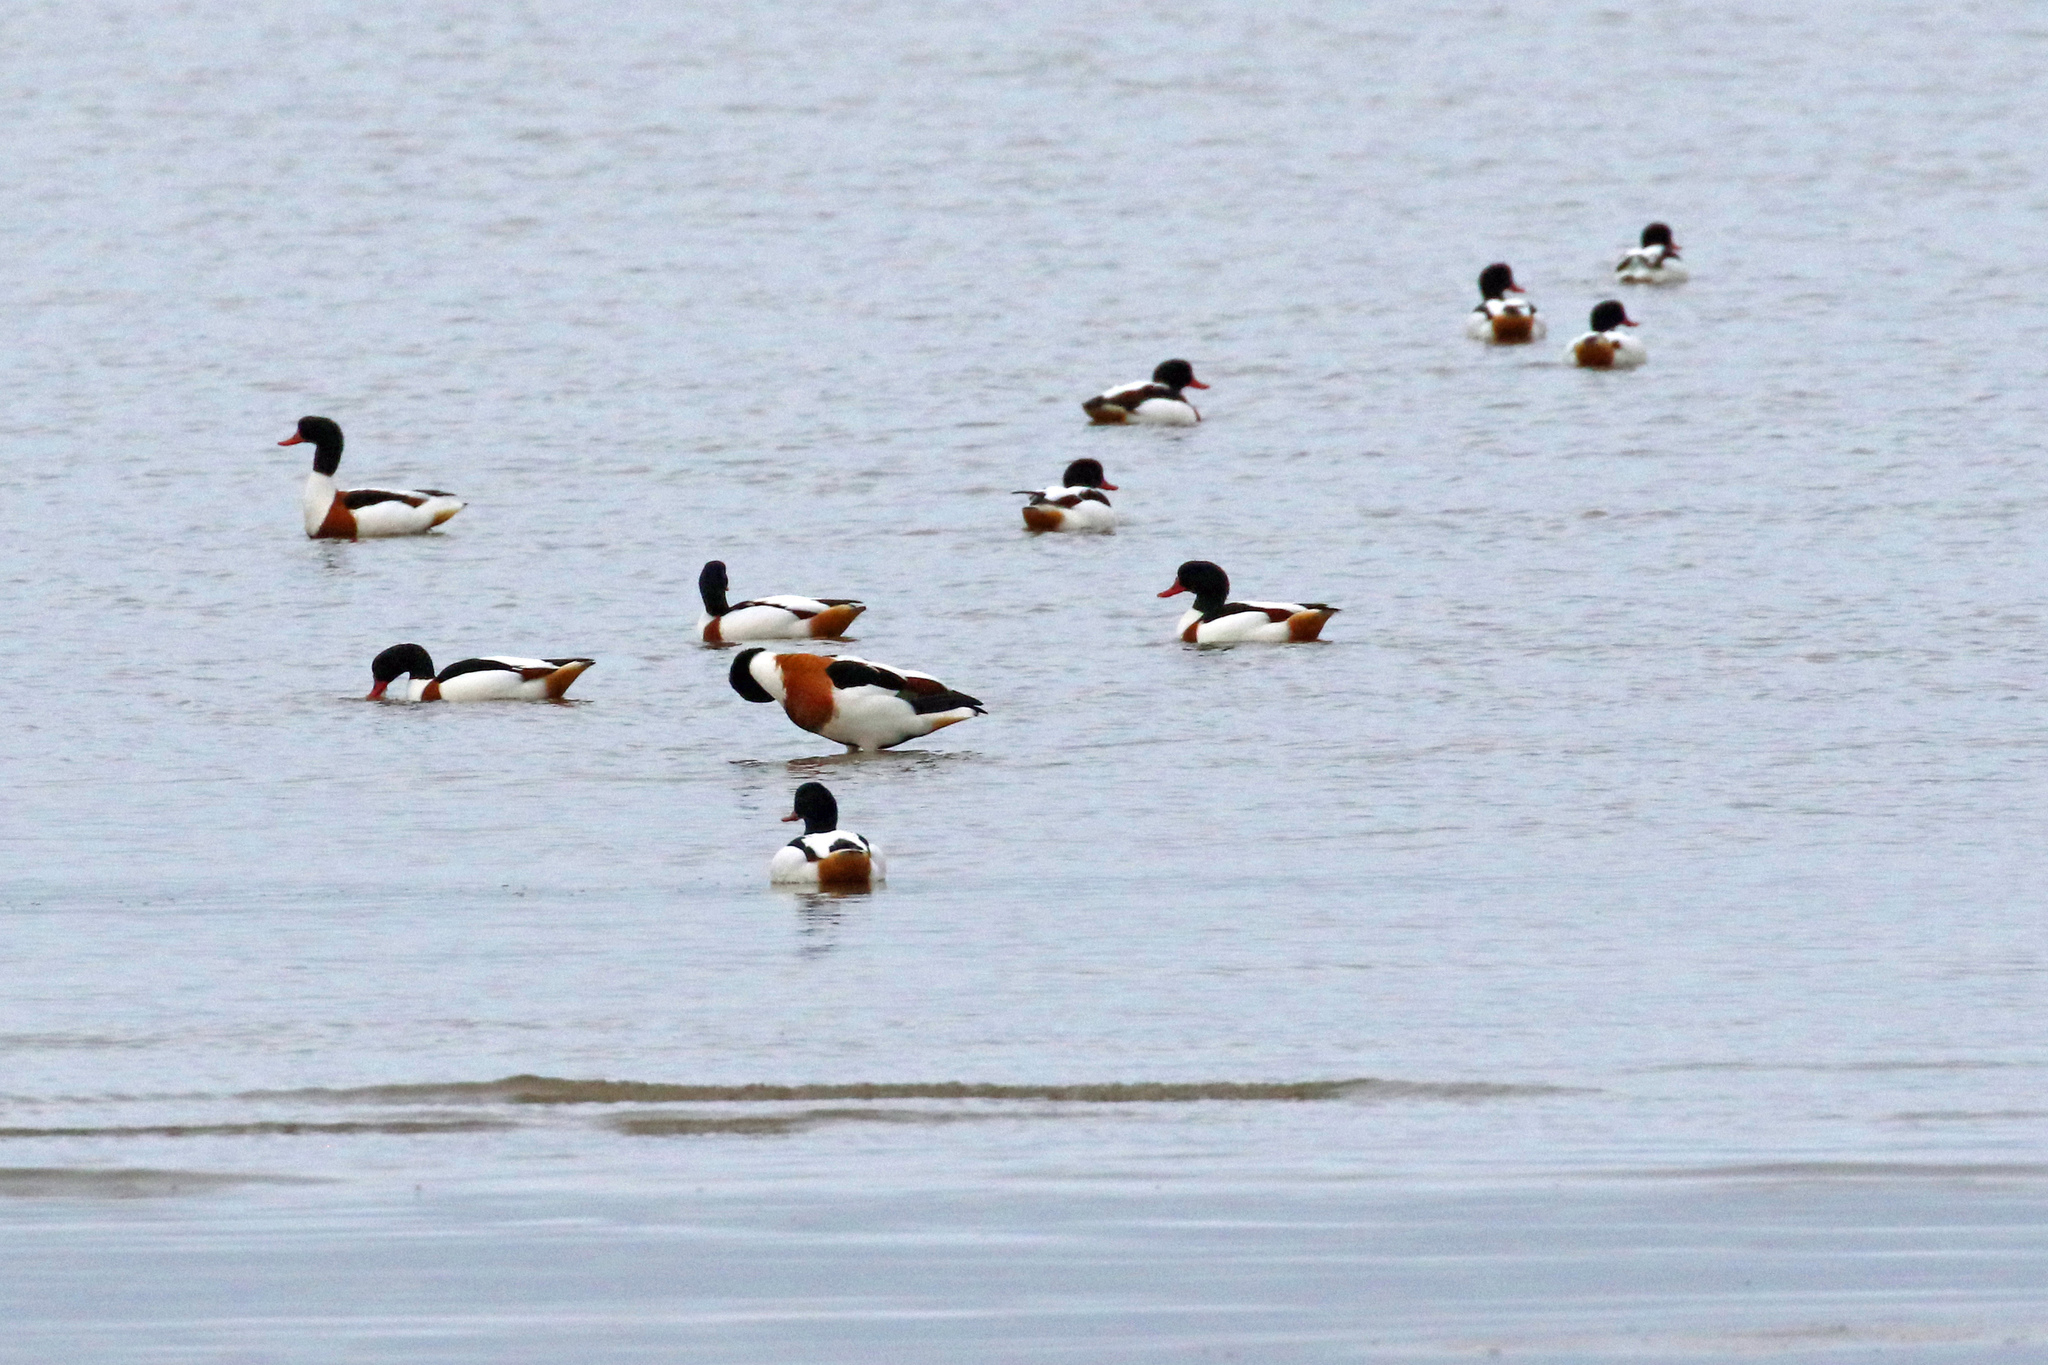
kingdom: Animalia
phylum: Chordata
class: Aves
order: Anseriformes
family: Anatidae
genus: Tadorna
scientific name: Tadorna tadorna
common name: Common shelduck
